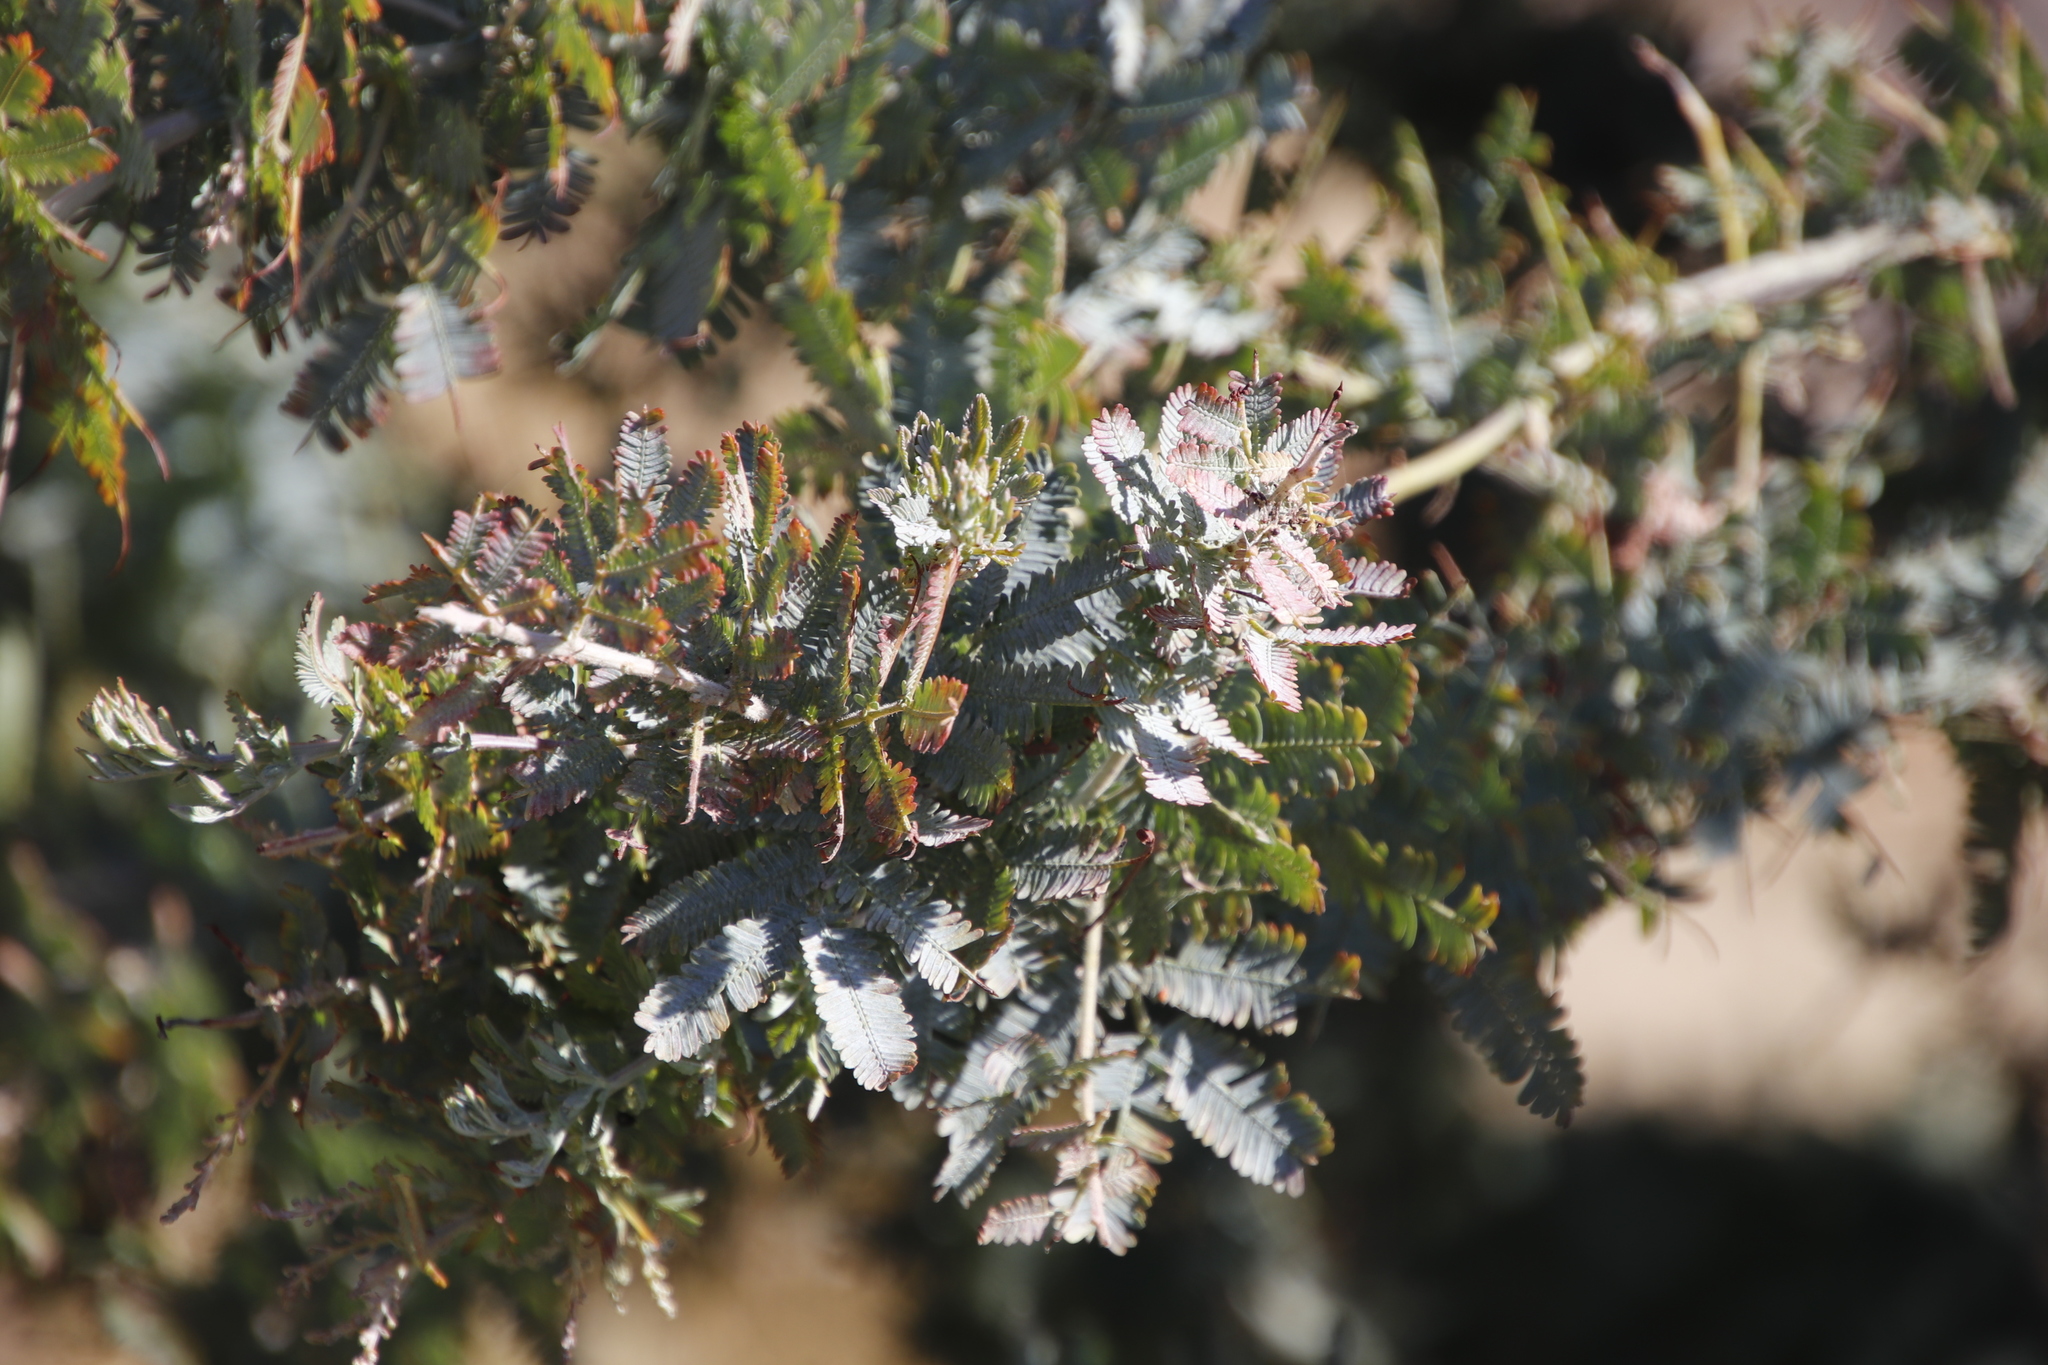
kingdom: Plantae
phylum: Tracheophyta
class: Magnoliopsida
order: Fabales
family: Fabaceae
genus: Acacia
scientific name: Acacia baileyana
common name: Cootamundra wattle
